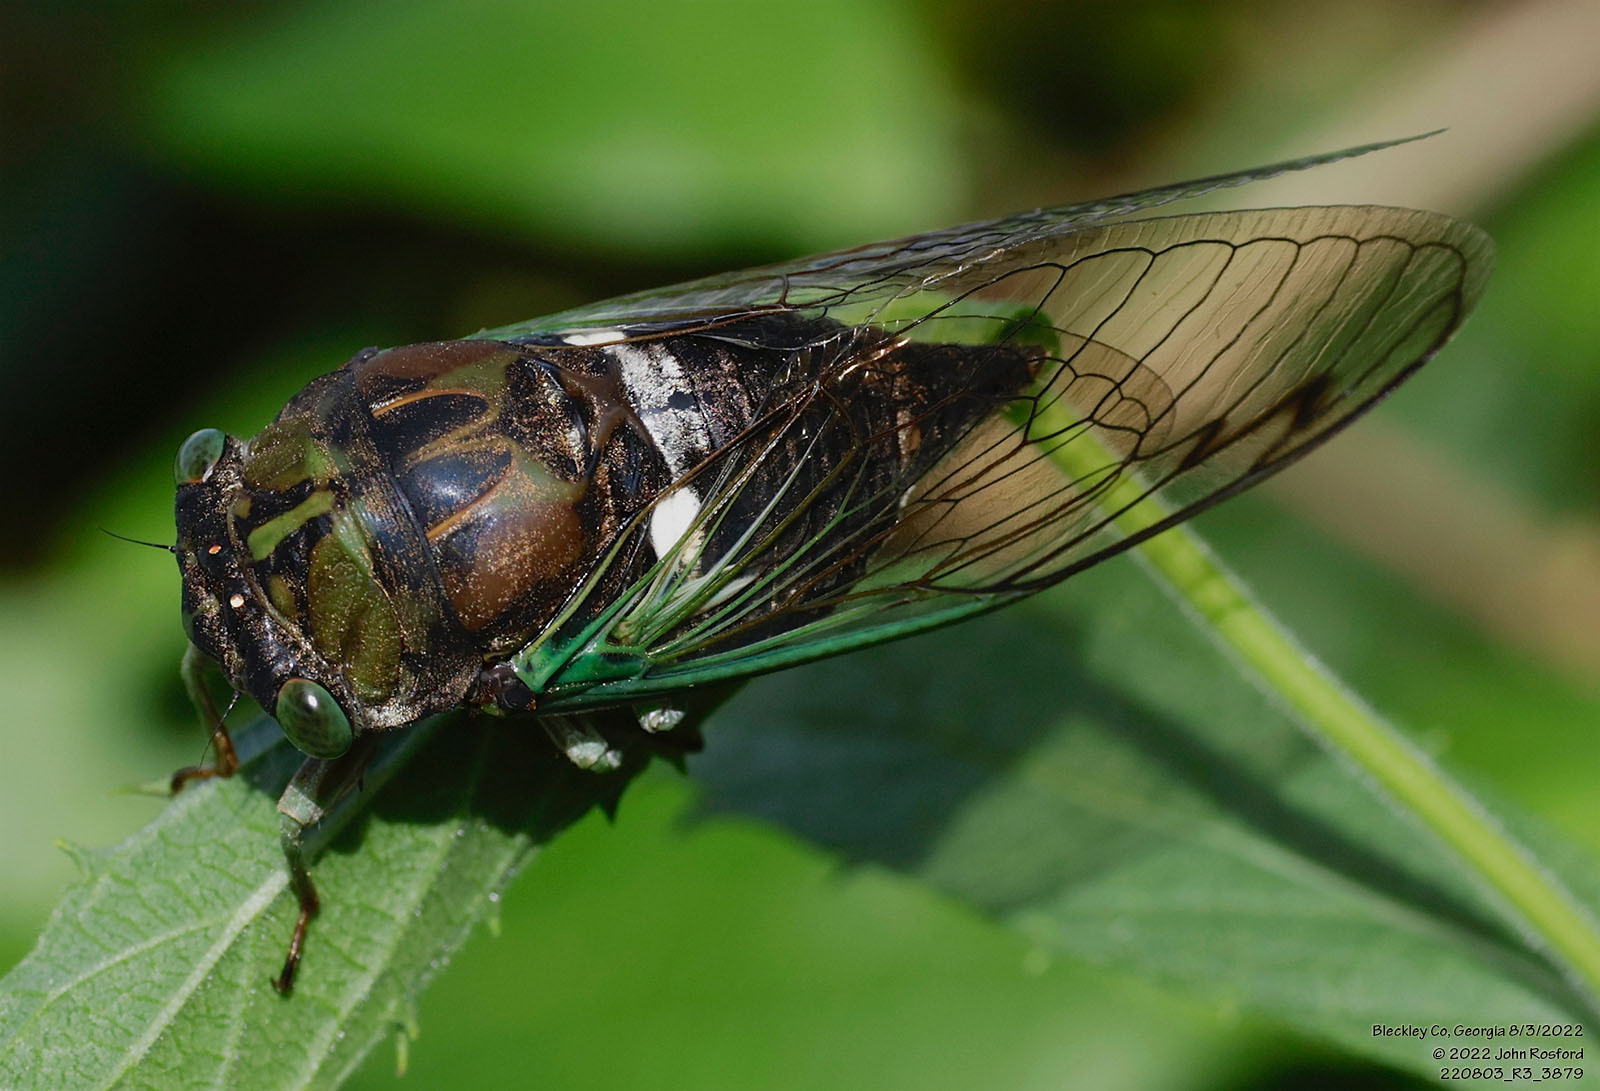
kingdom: Animalia
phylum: Arthropoda
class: Insecta
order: Hemiptera
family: Cicadidae
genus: Neotibicen
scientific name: Neotibicen tibicen
